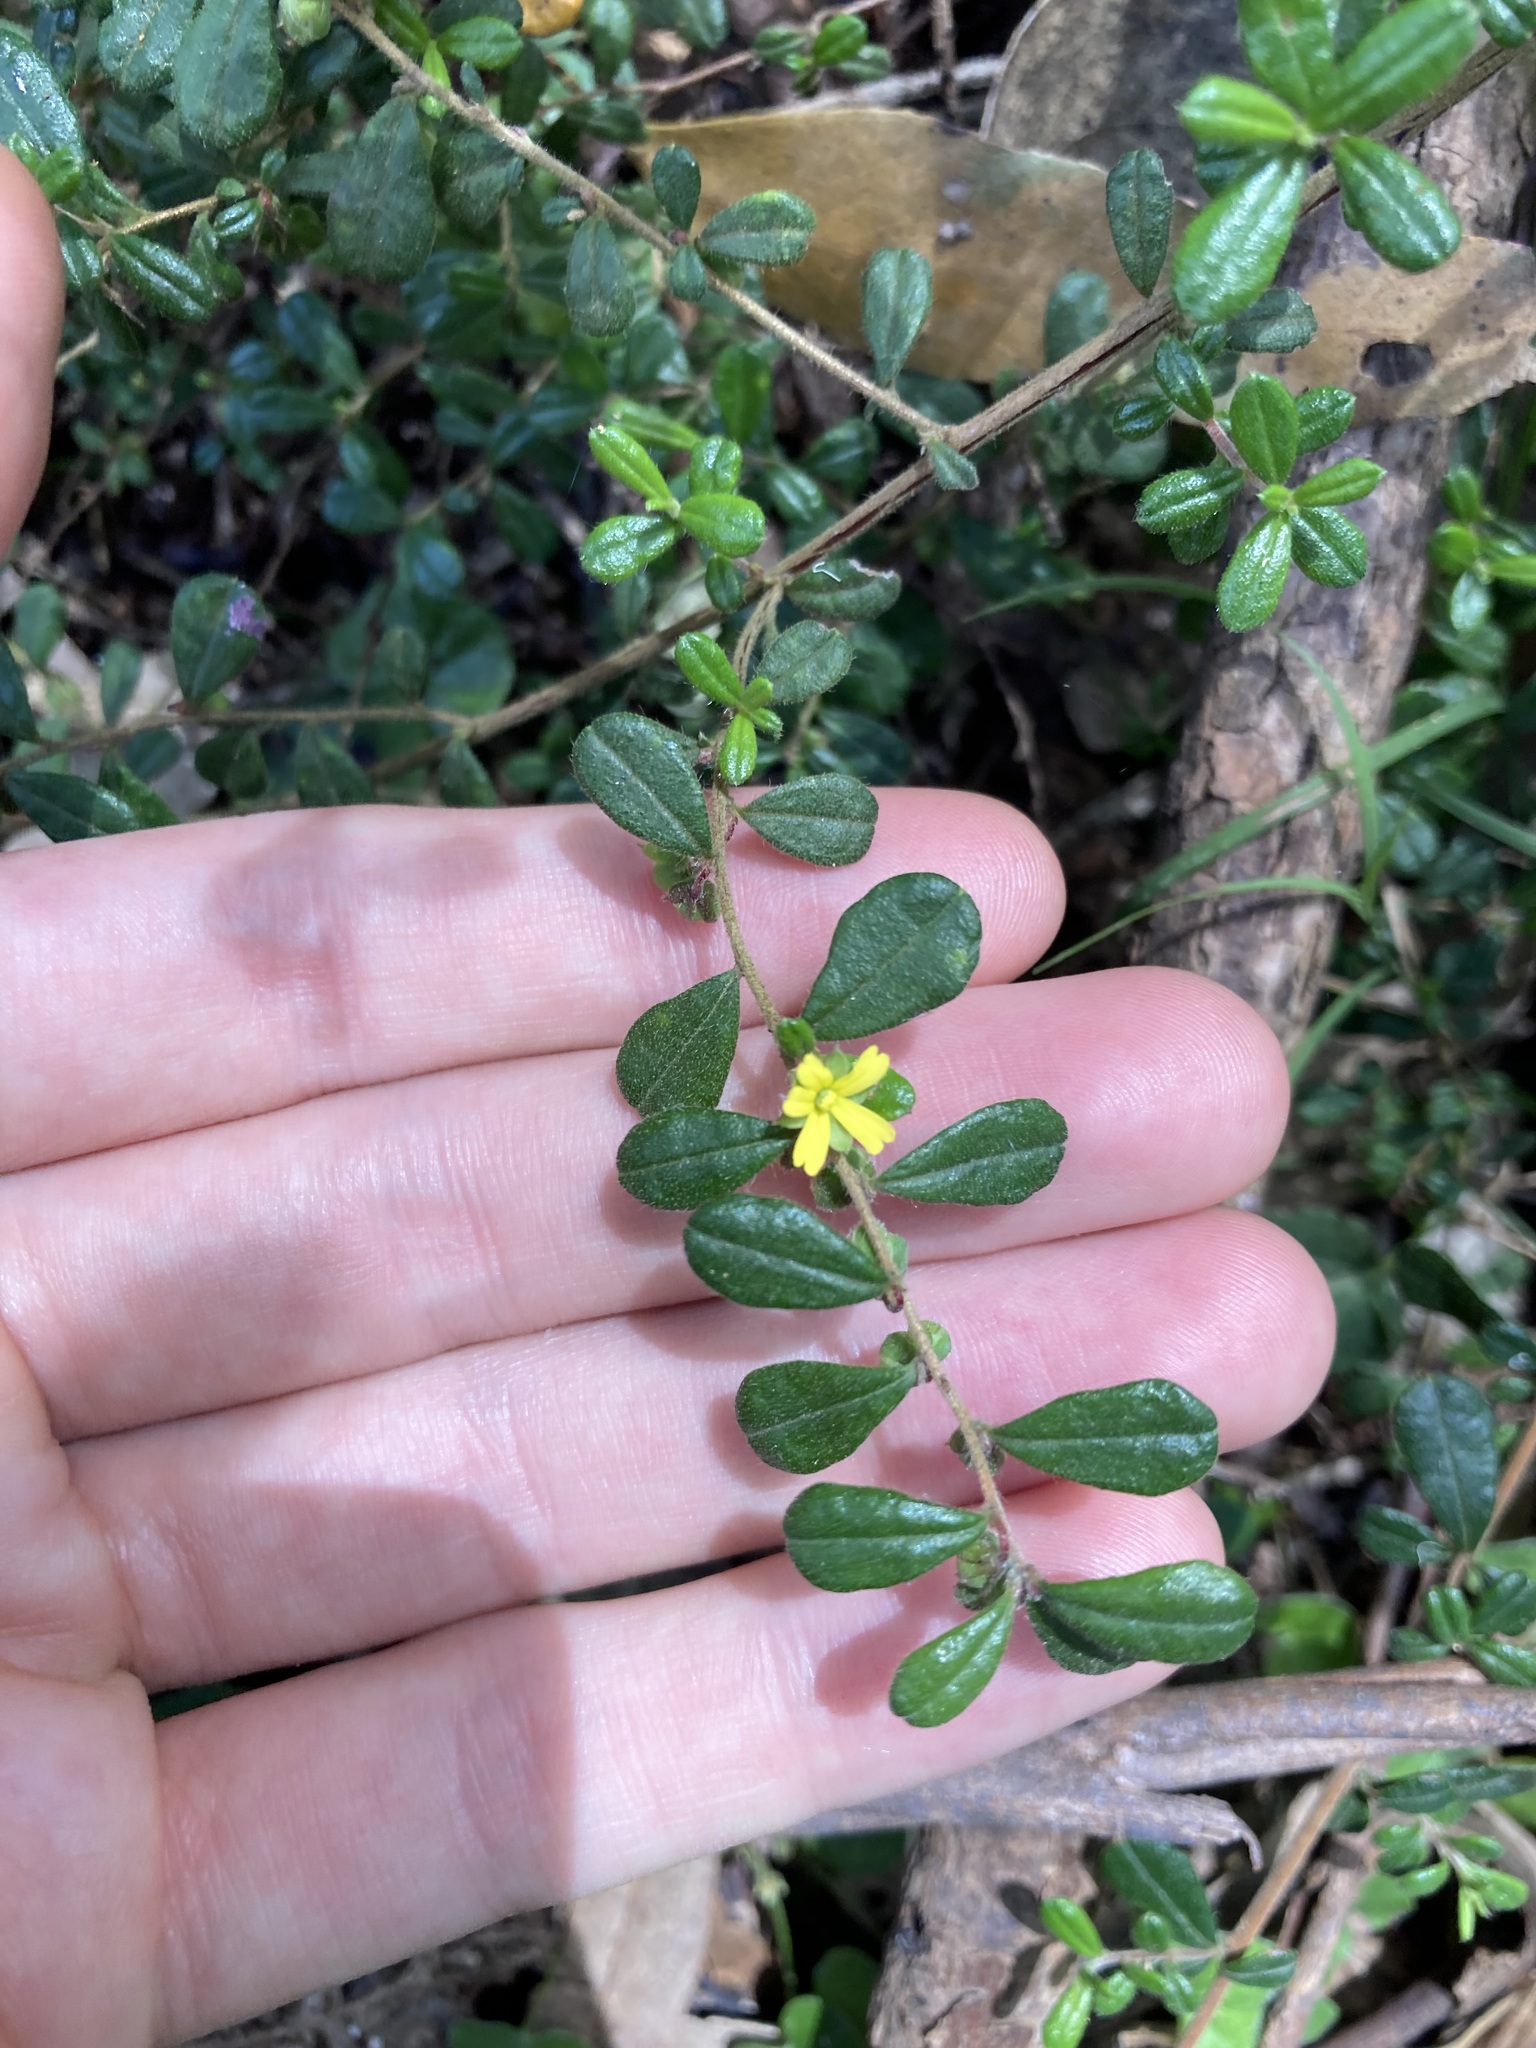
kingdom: Plantae
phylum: Tracheophyta
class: Magnoliopsida
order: Dilleniales
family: Dilleniaceae
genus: Hibbertia
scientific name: Hibbertia aspera
